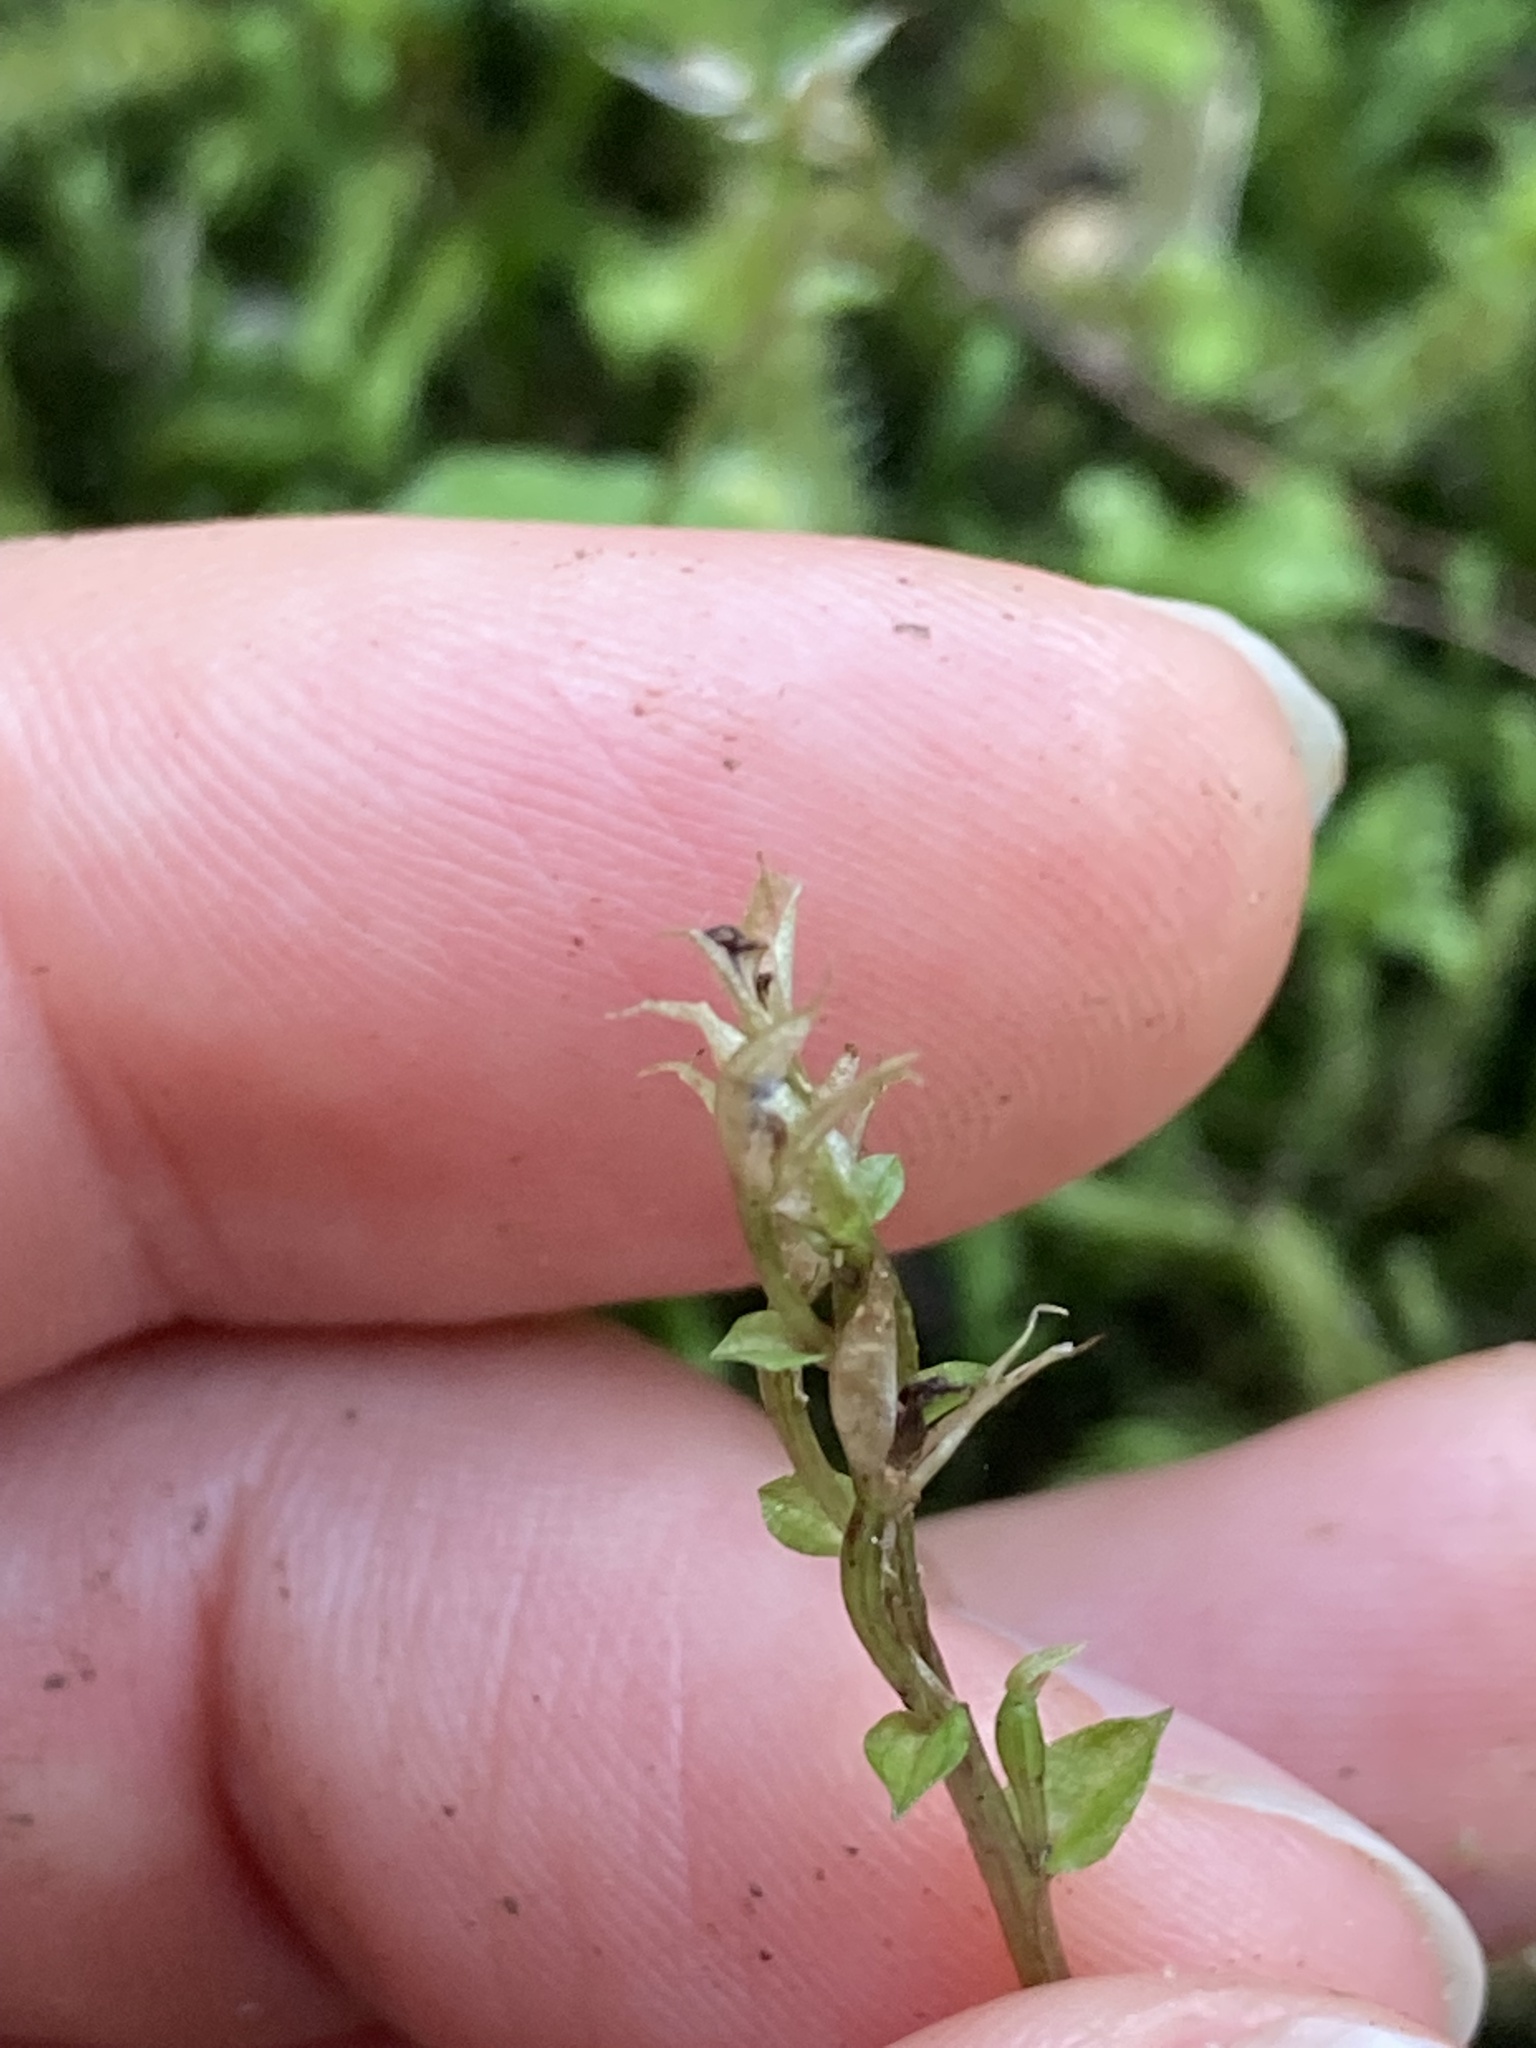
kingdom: Plantae
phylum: Tracheophyta
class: Liliopsida
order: Asparagales
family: Orchidaceae
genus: Acianthus
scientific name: Acianthus sinclairii
